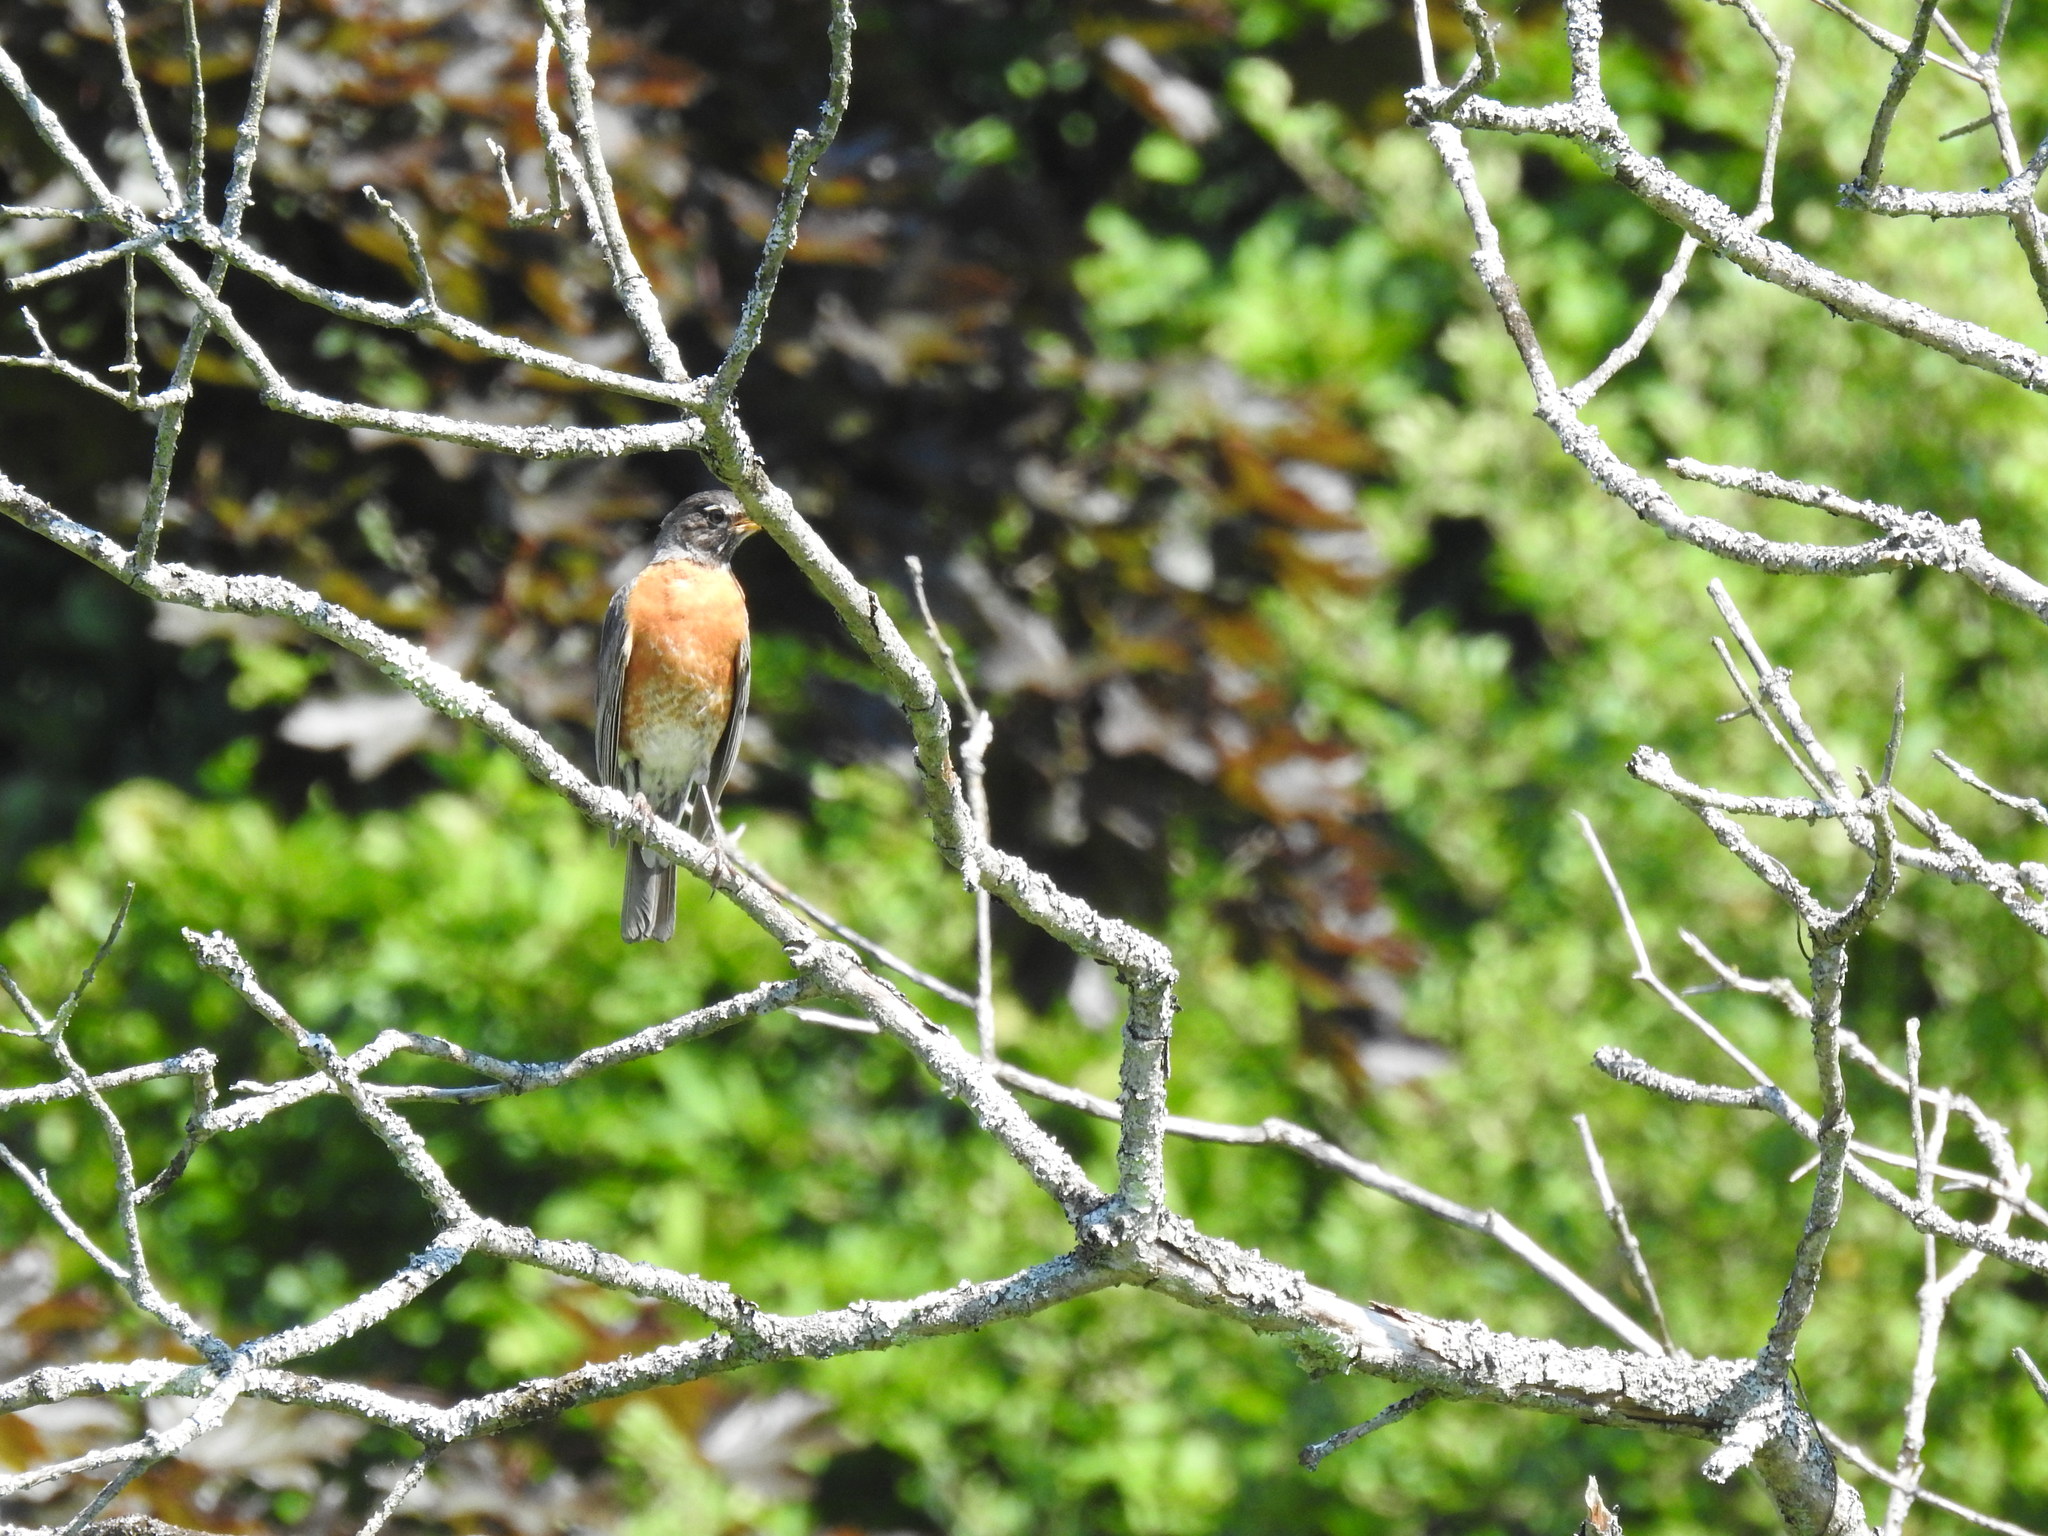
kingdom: Animalia
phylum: Chordata
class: Aves
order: Passeriformes
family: Turdidae
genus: Turdus
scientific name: Turdus migratorius
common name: American robin
